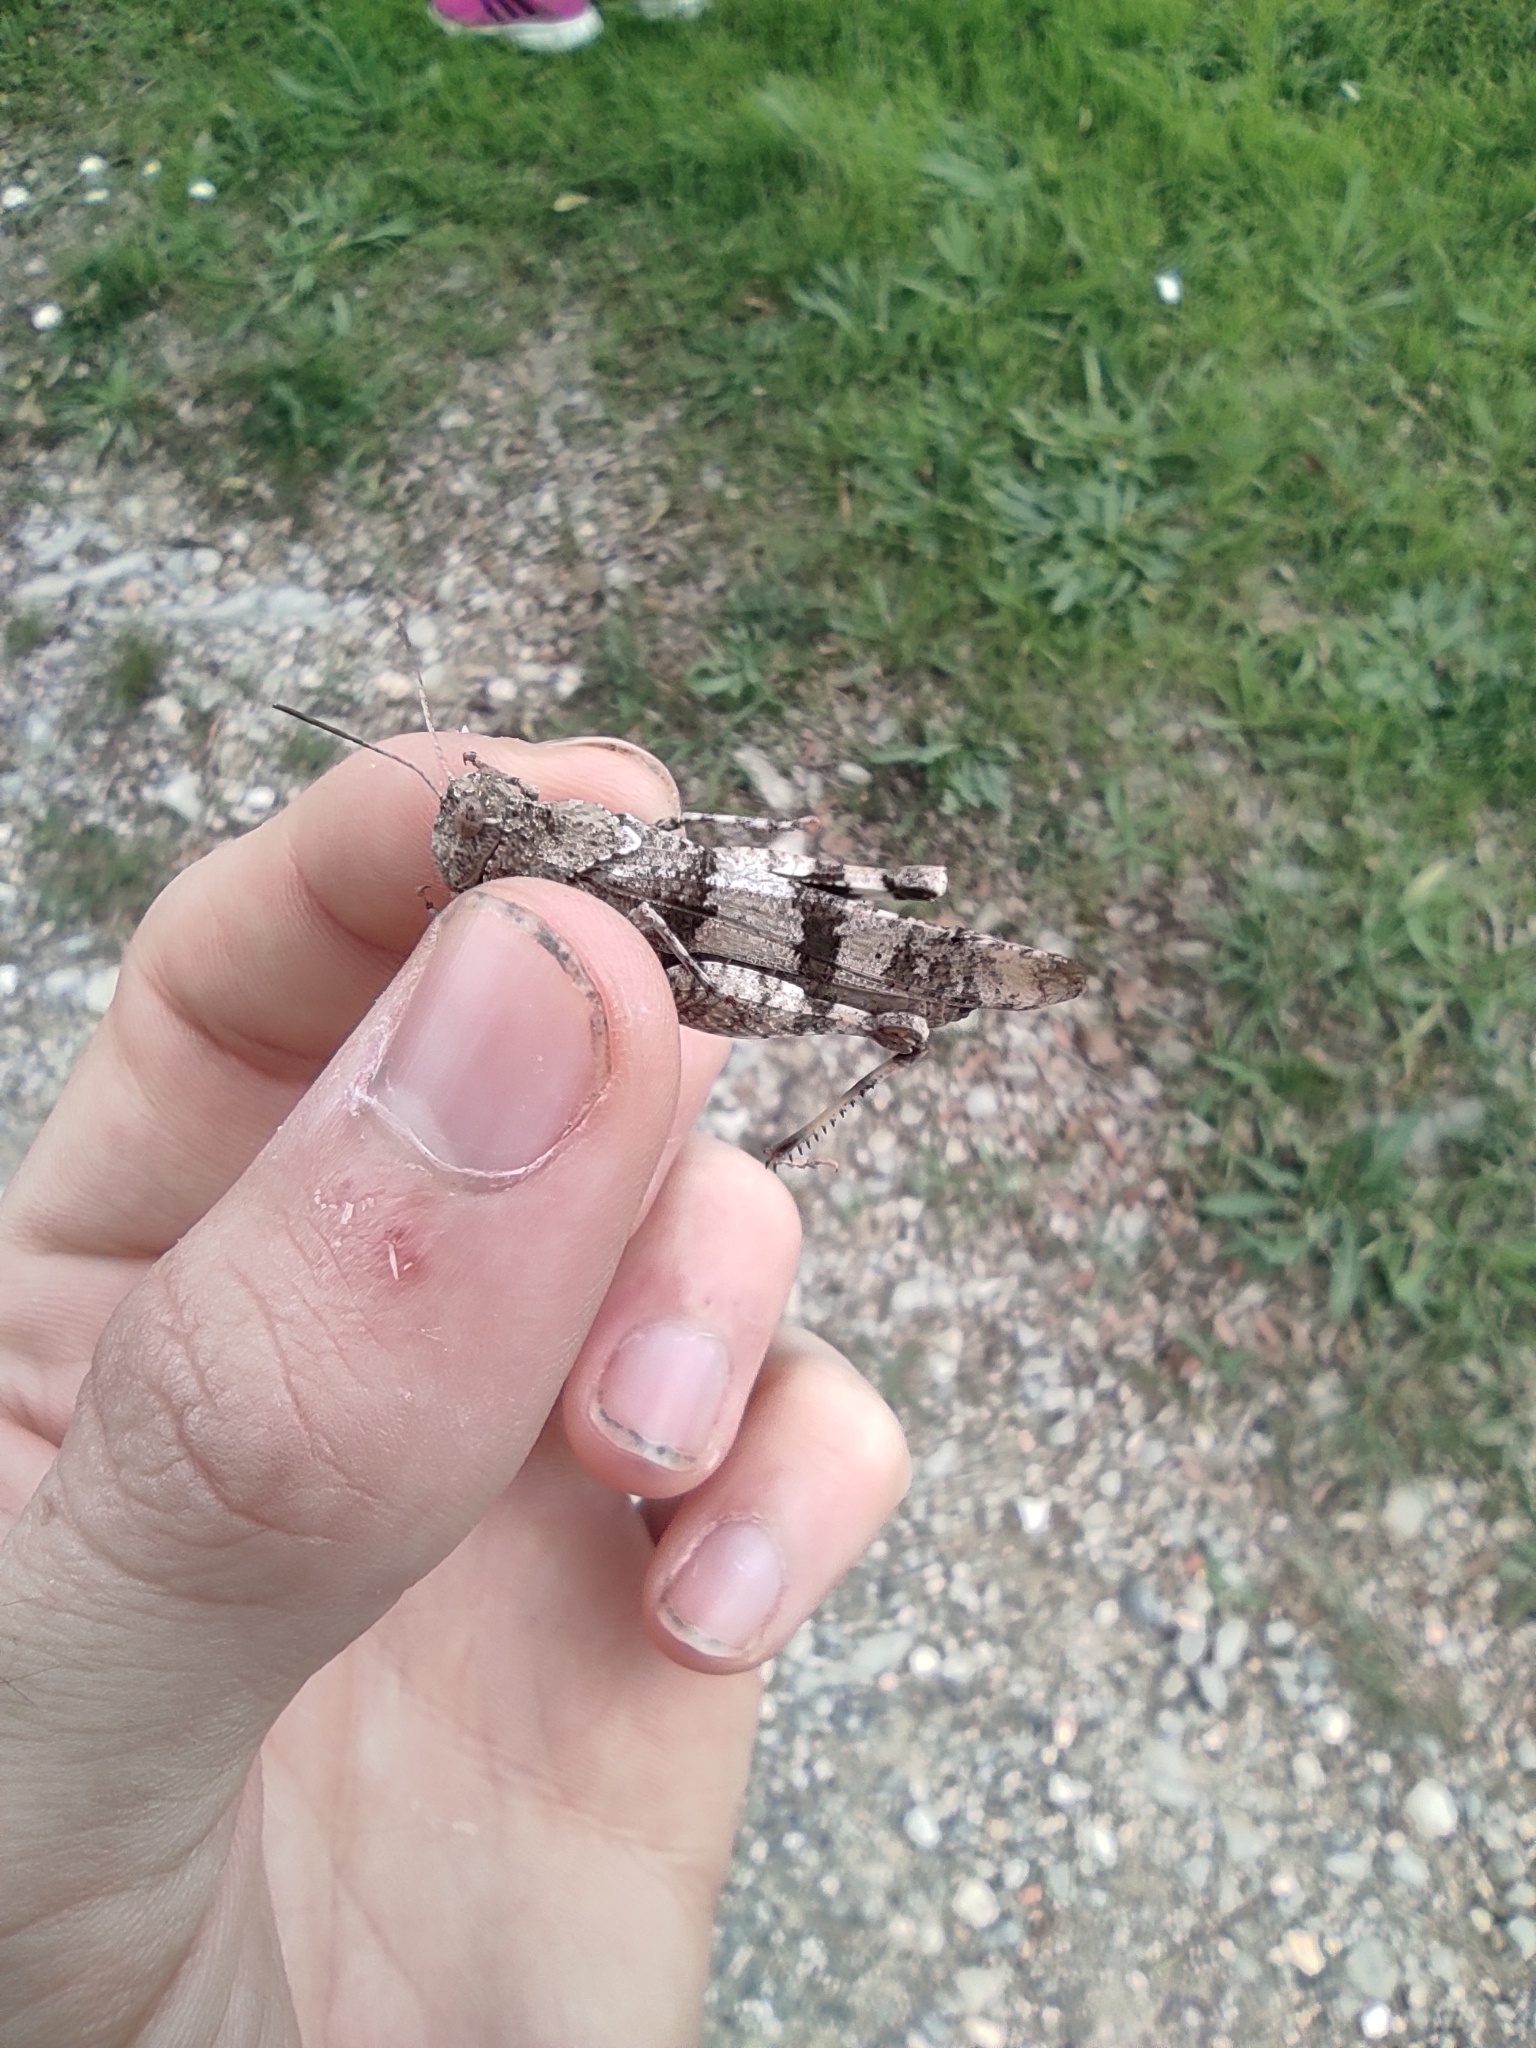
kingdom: Animalia
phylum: Arthropoda
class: Insecta
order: Orthoptera
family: Acrididae
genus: Oedipoda
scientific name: Oedipoda caerulescens
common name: Blue-winged grasshopper
